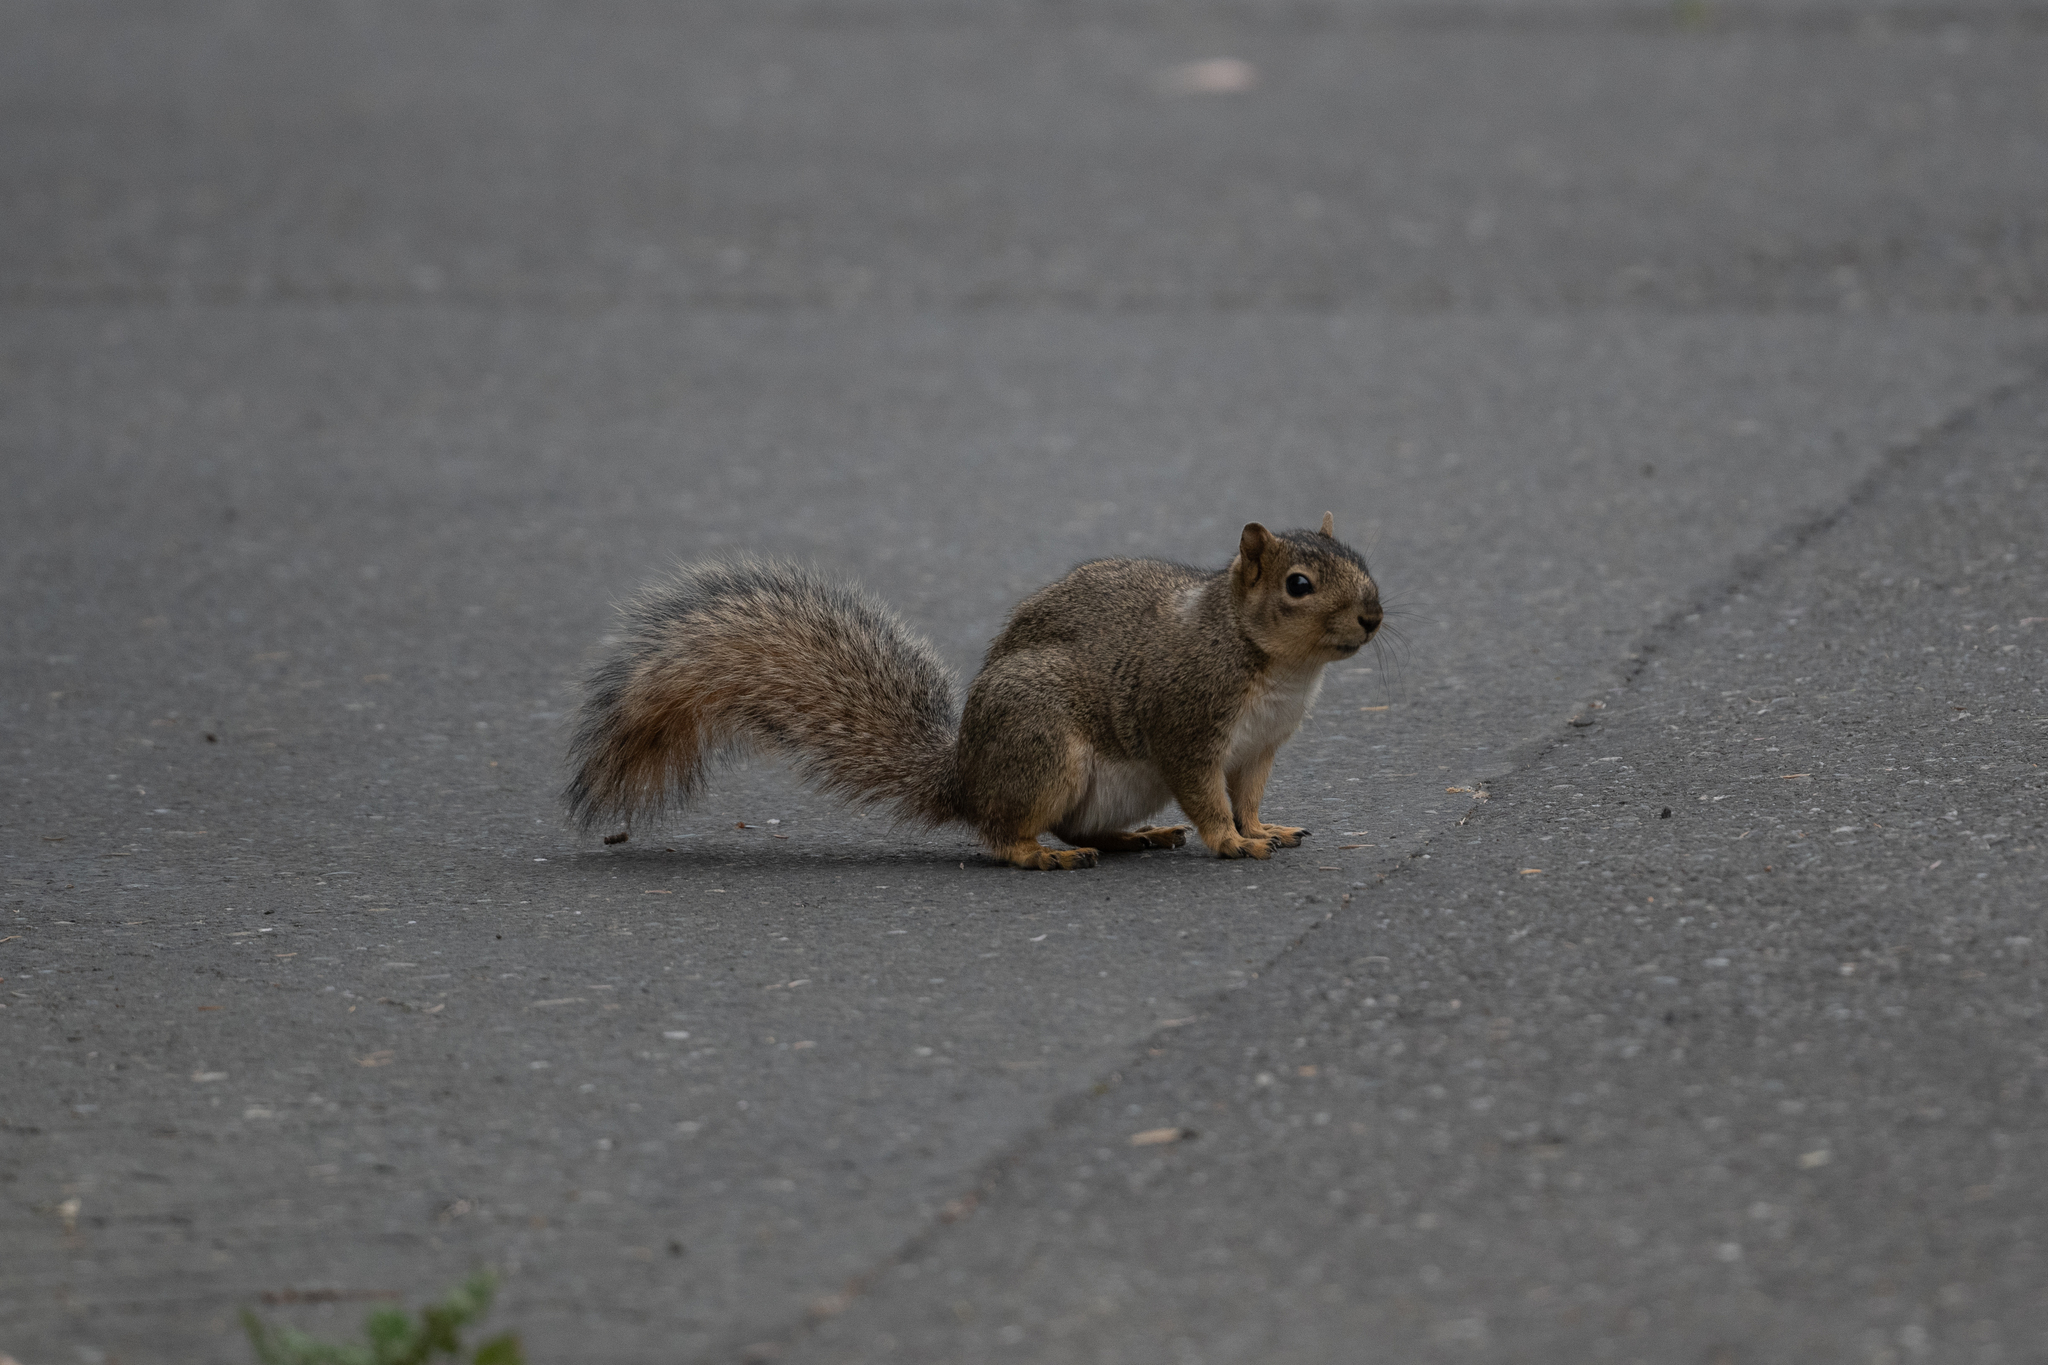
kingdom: Animalia
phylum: Chordata
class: Mammalia
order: Rodentia
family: Sciuridae
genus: Sciurus
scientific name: Sciurus niger
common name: Fox squirrel
